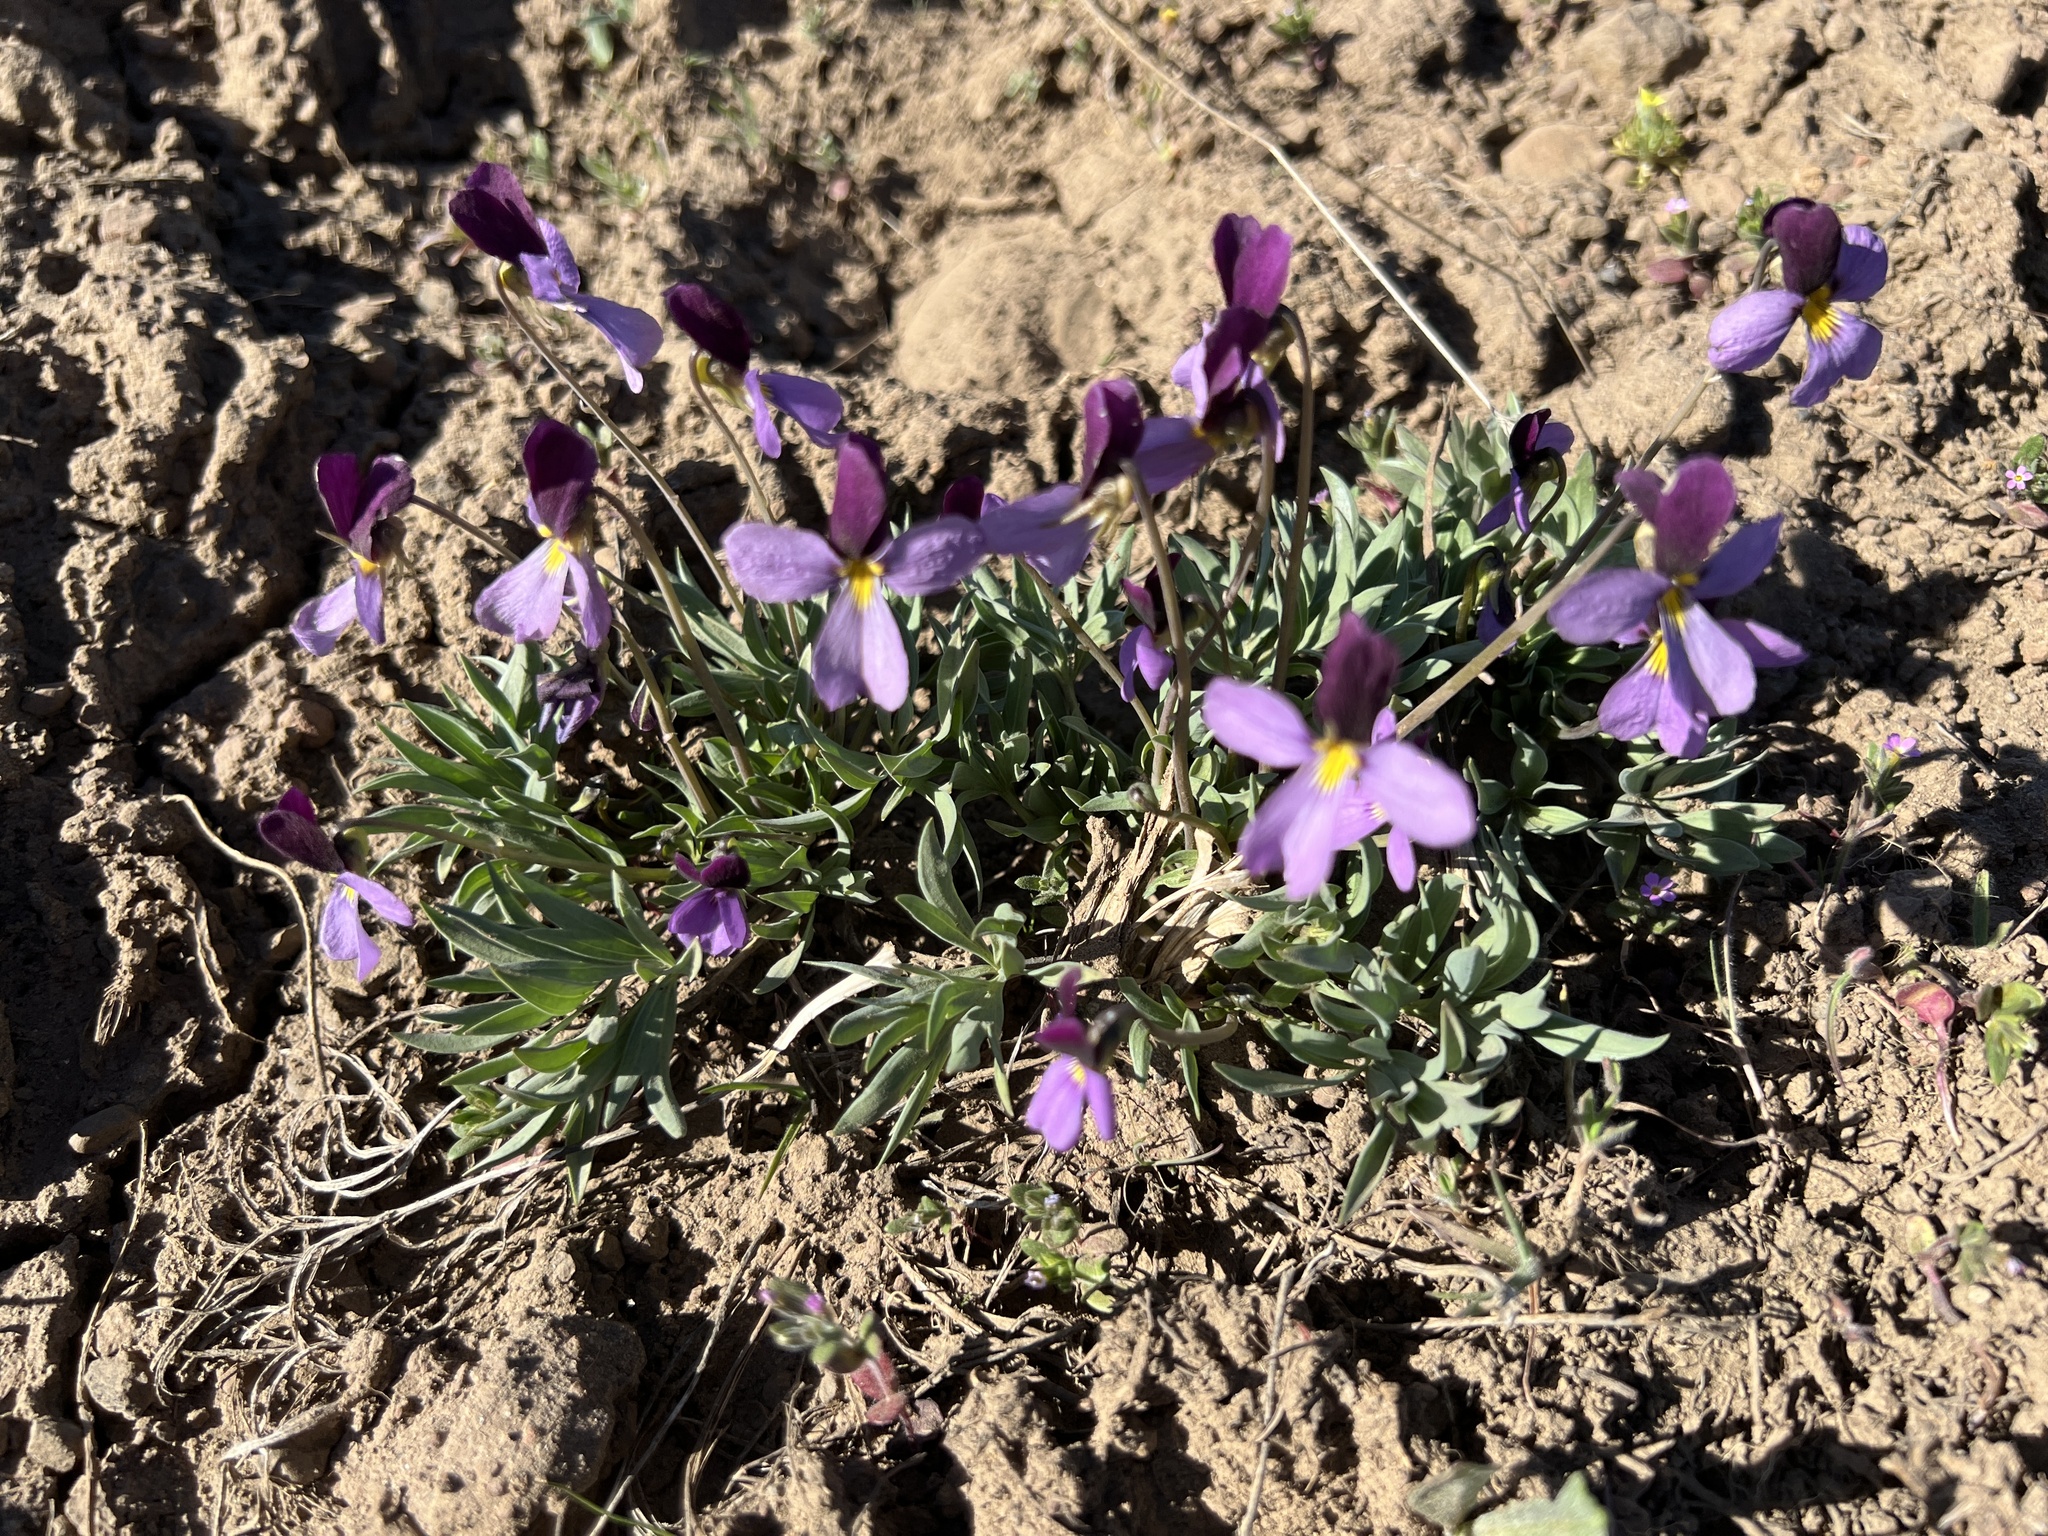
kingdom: Plantae
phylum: Tracheophyta
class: Magnoliopsida
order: Malpighiales
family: Violaceae
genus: Viola
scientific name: Viola trinervata
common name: Sagebrush violet
